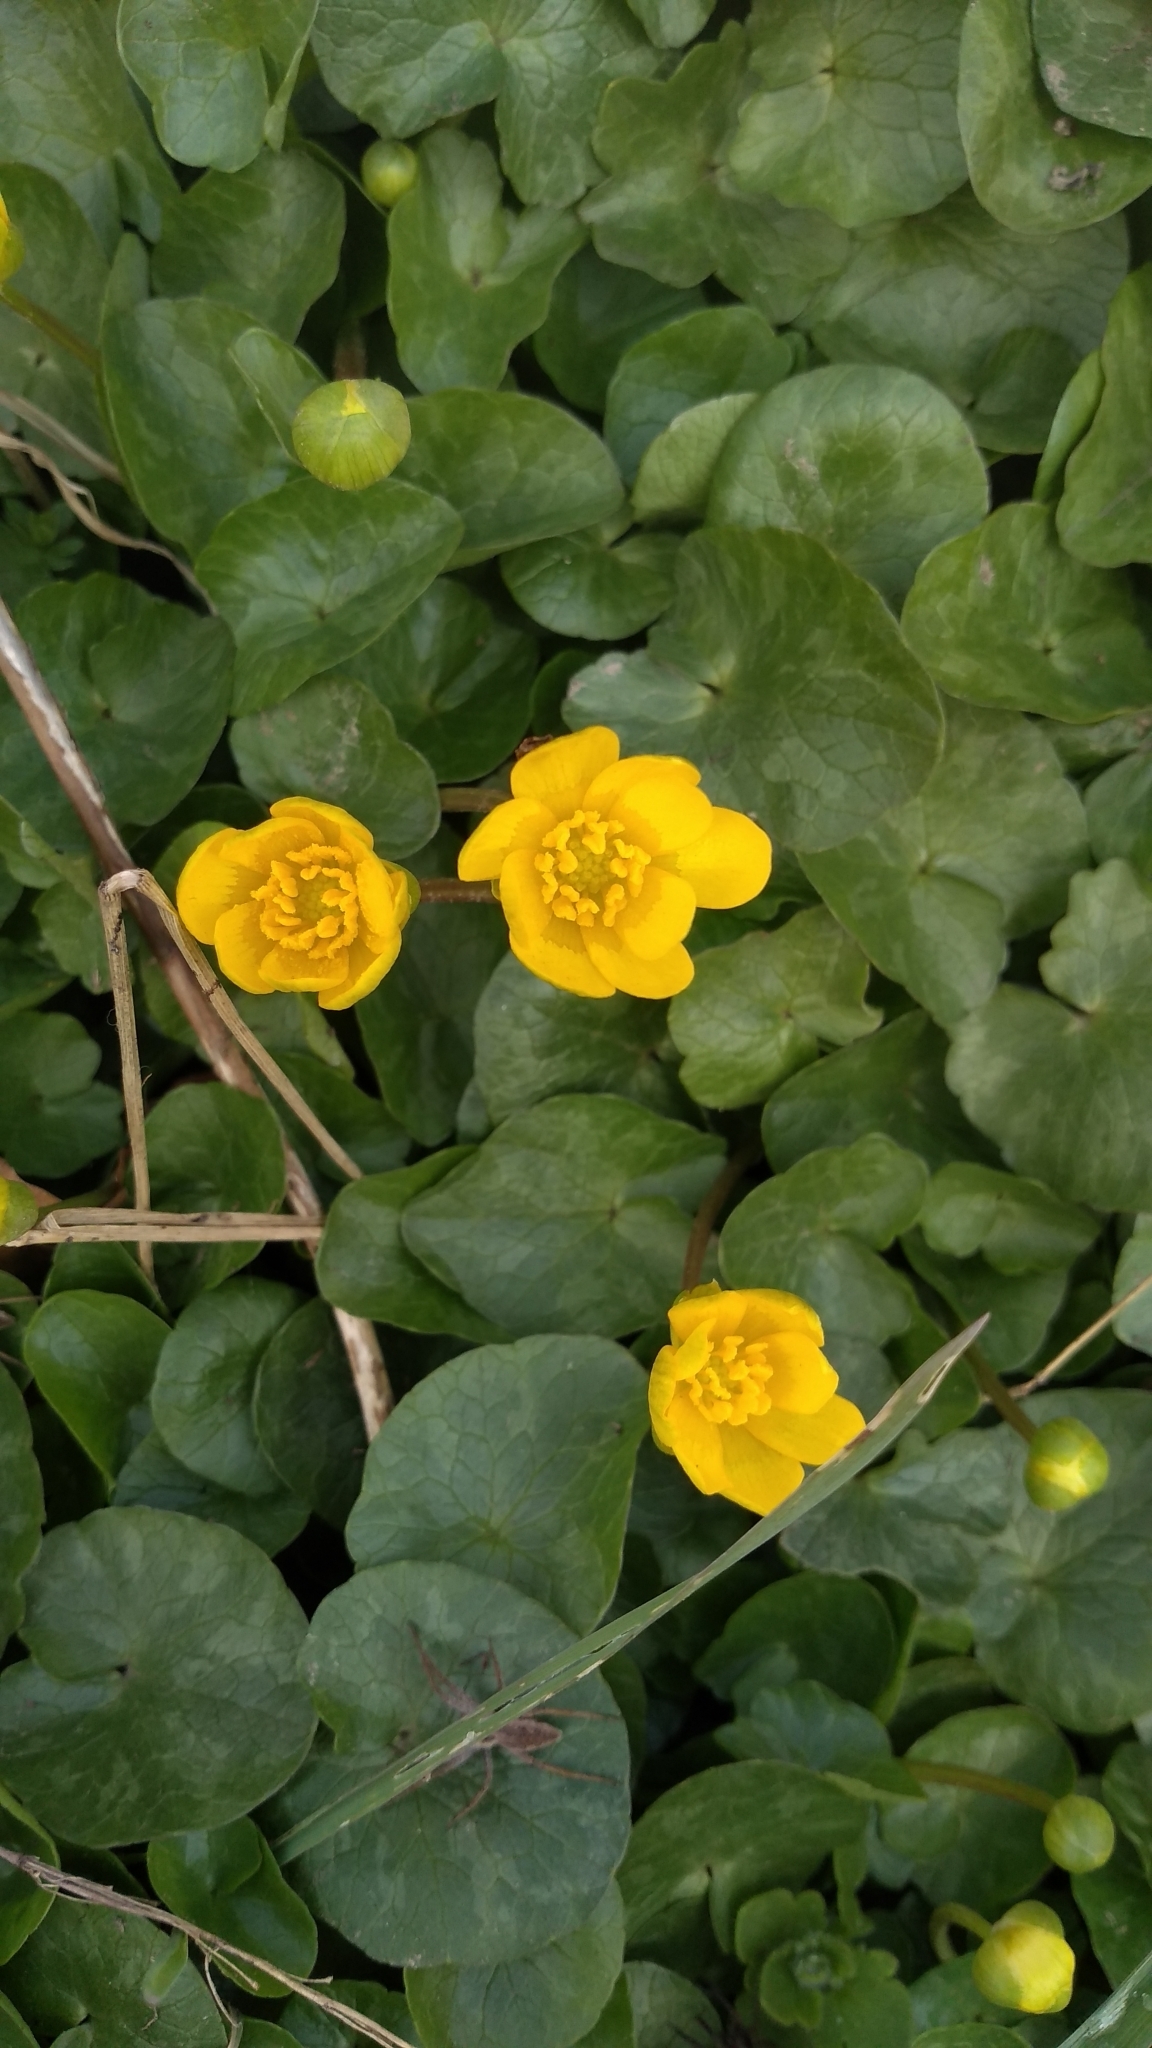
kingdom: Plantae
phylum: Tracheophyta
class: Magnoliopsida
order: Ranunculales
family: Ranunculaceae
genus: Ficaria
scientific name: Ficaria verna
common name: Lesser celandine
